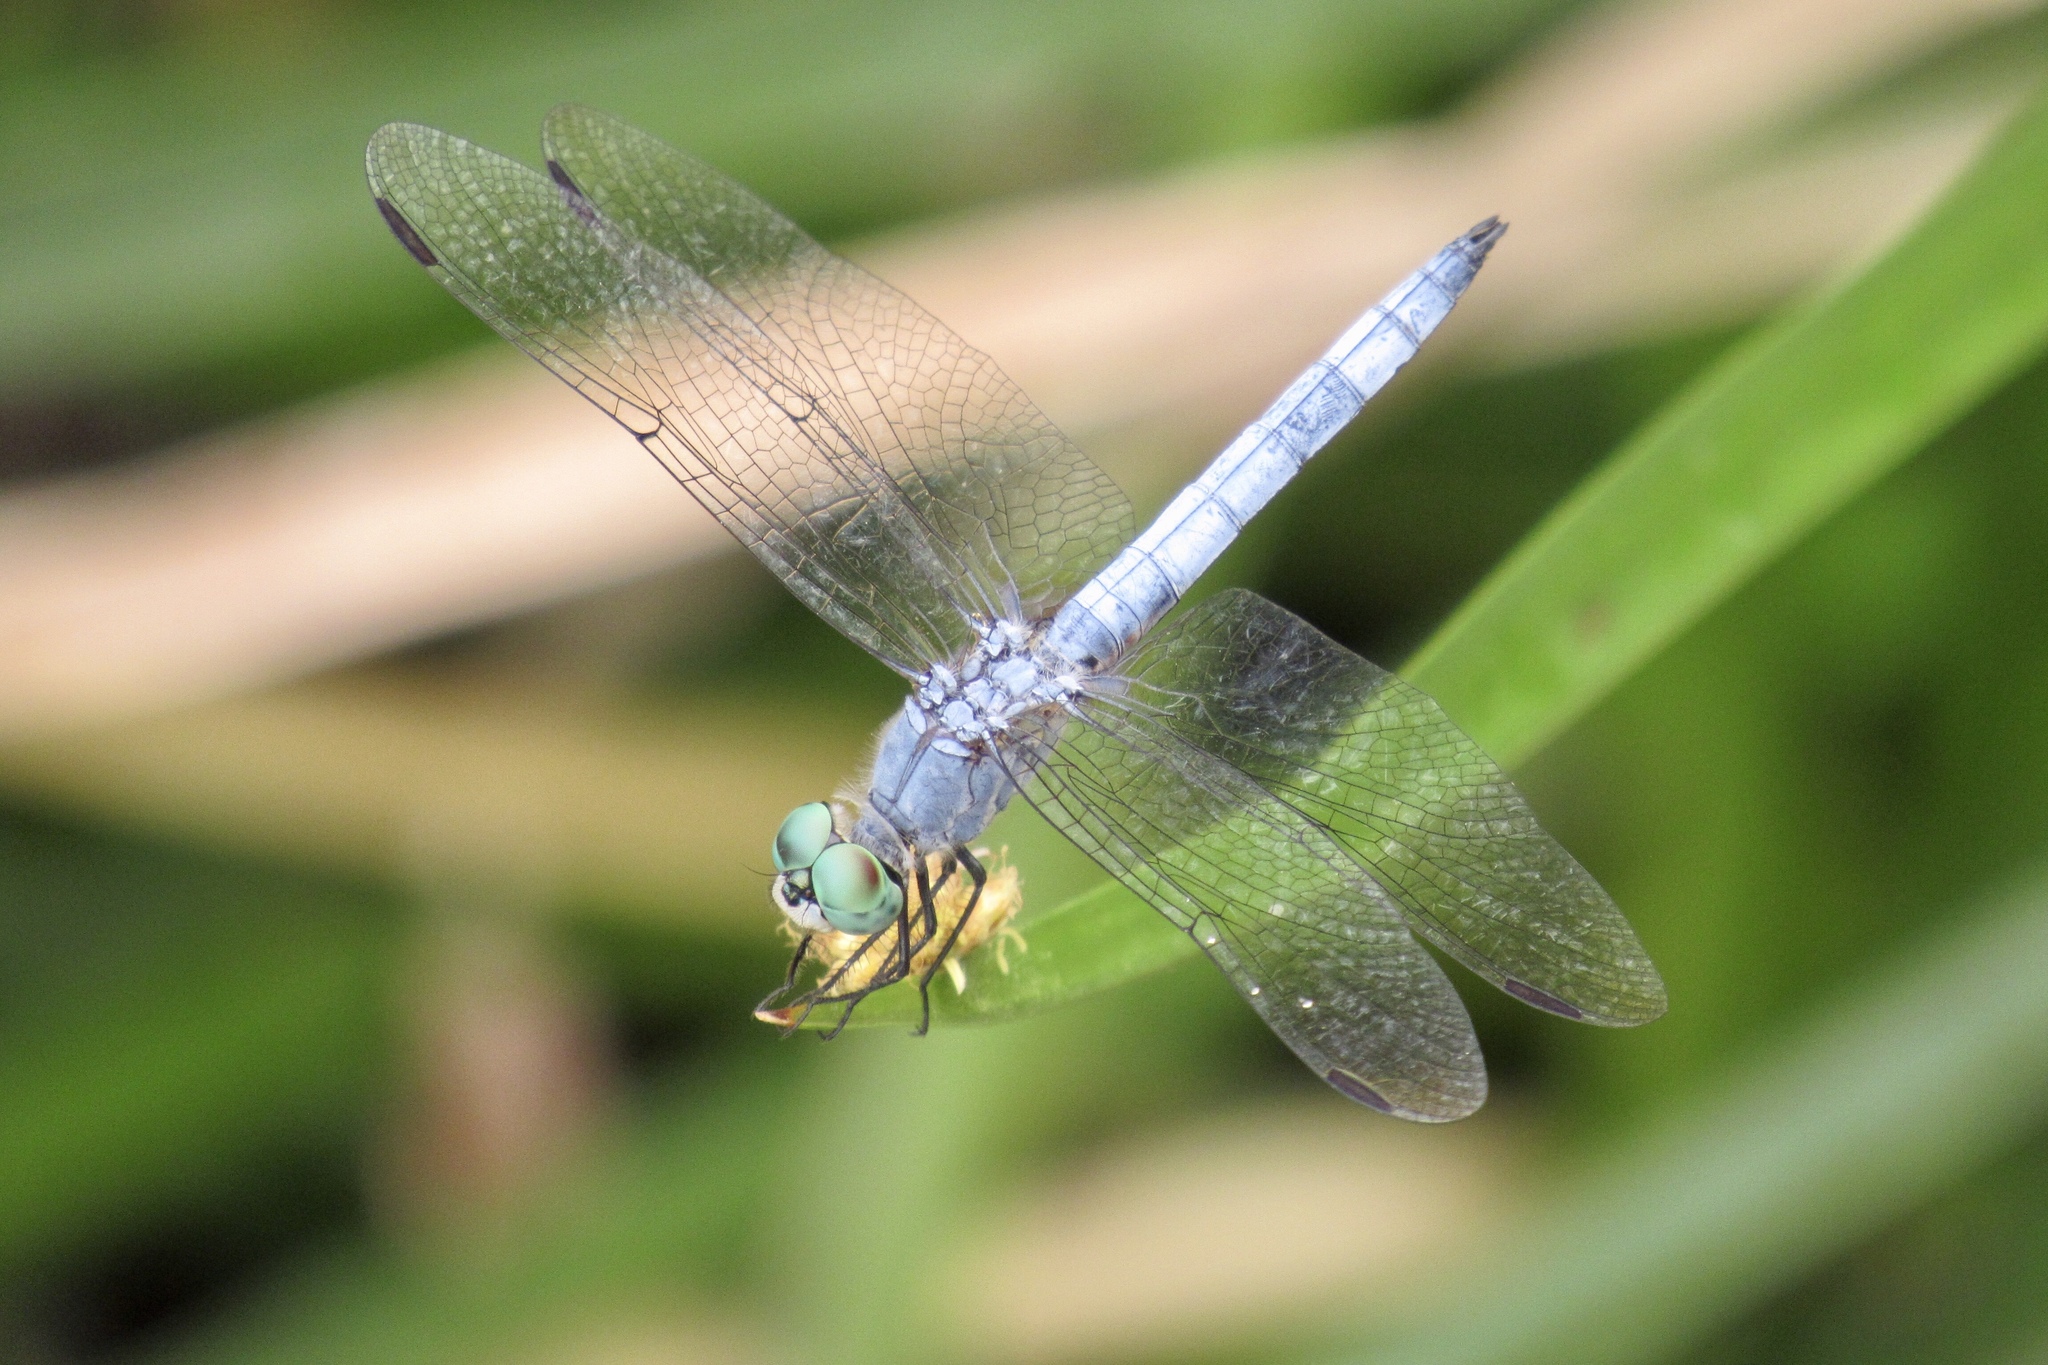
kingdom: Animalia
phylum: Arthropoda
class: Insecta
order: Odonata
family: Libellulidae
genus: Pachydiplax
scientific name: Pachydiplax longipennis
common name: Blue dasher
